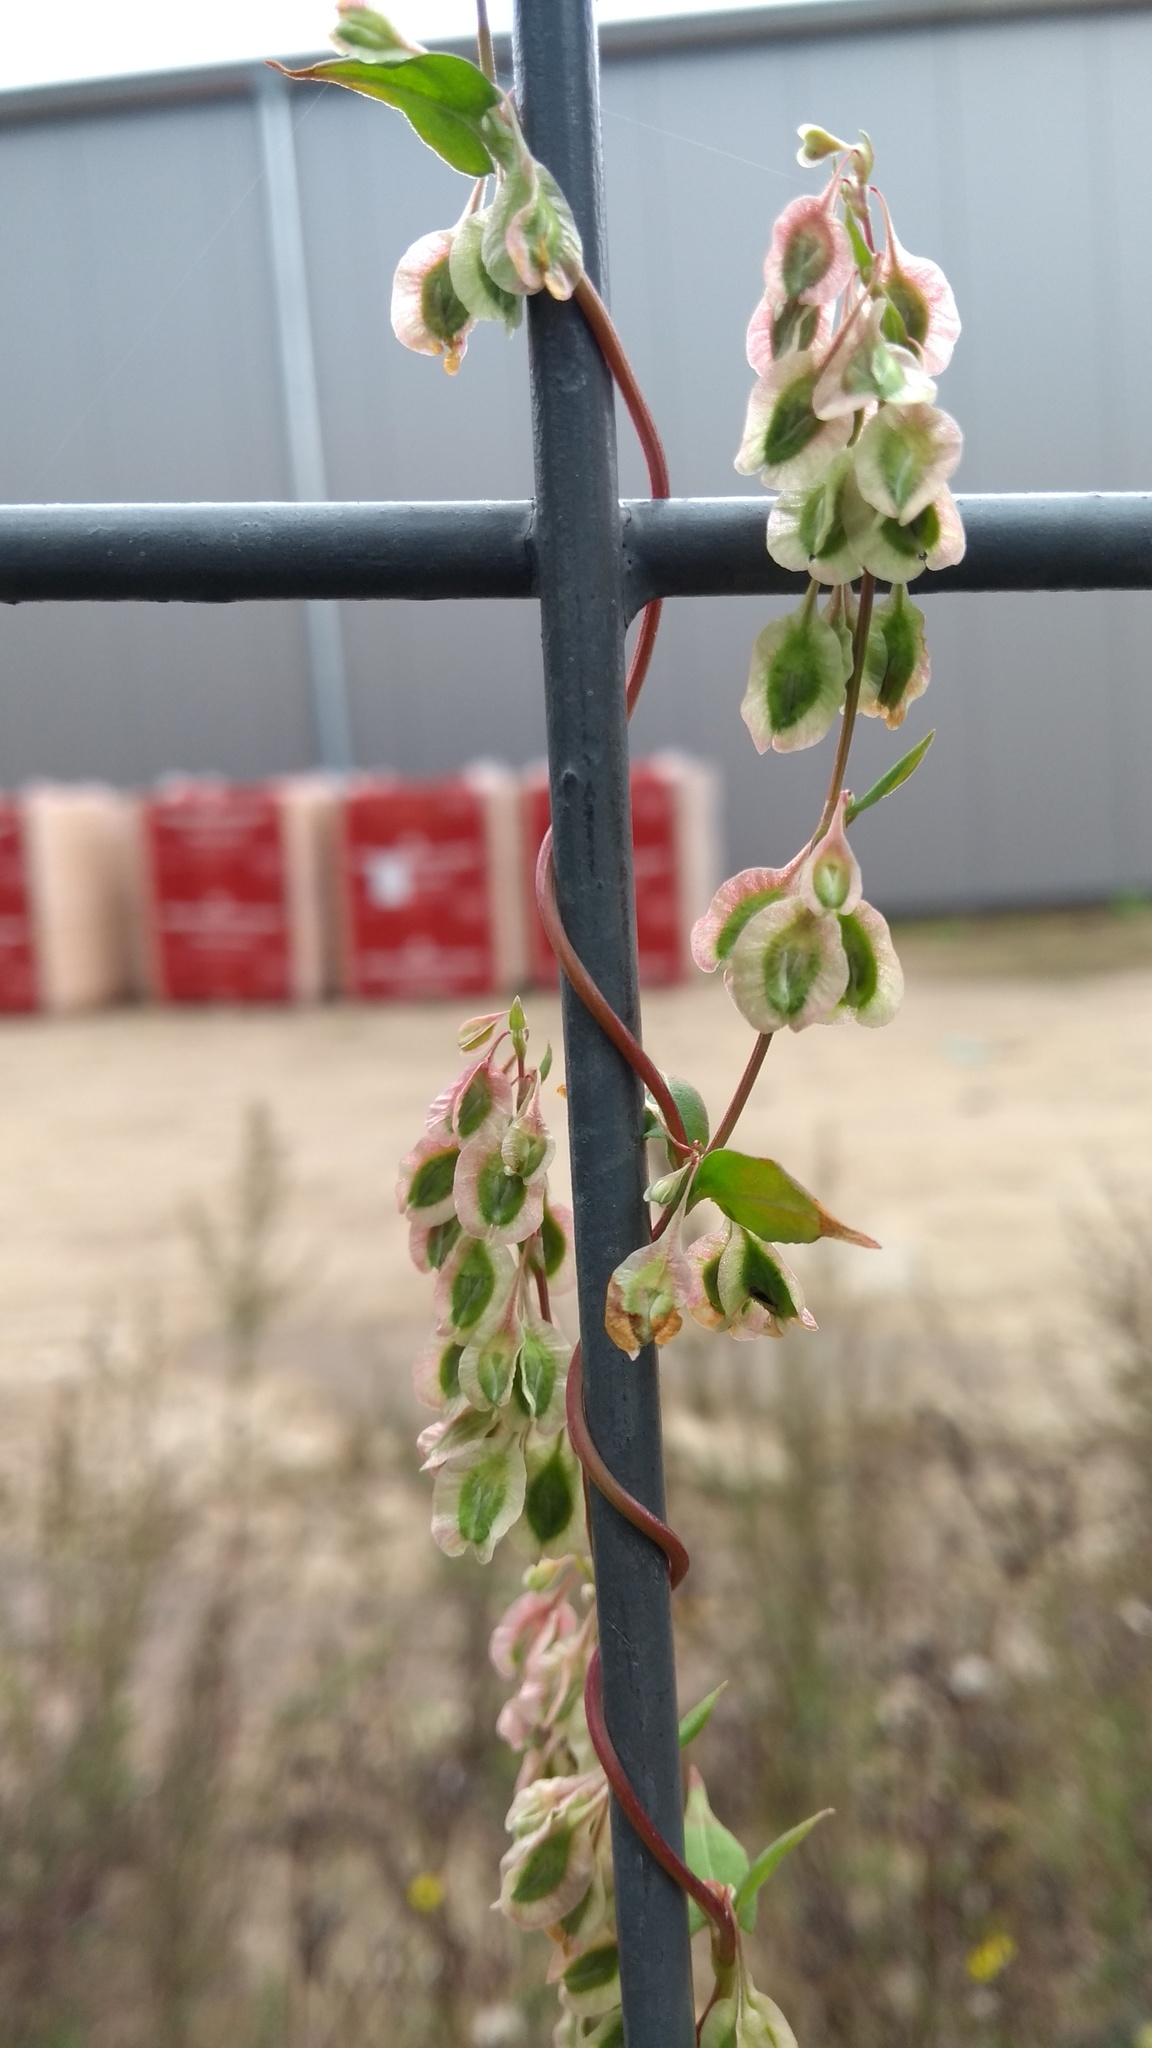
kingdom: Plantae
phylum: Tracheophyta
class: Magnoliopsida
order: Caryophyllales
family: Polygonaceae
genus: Fallopia
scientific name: Fallopia dumetorum
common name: Copse-bindweed
